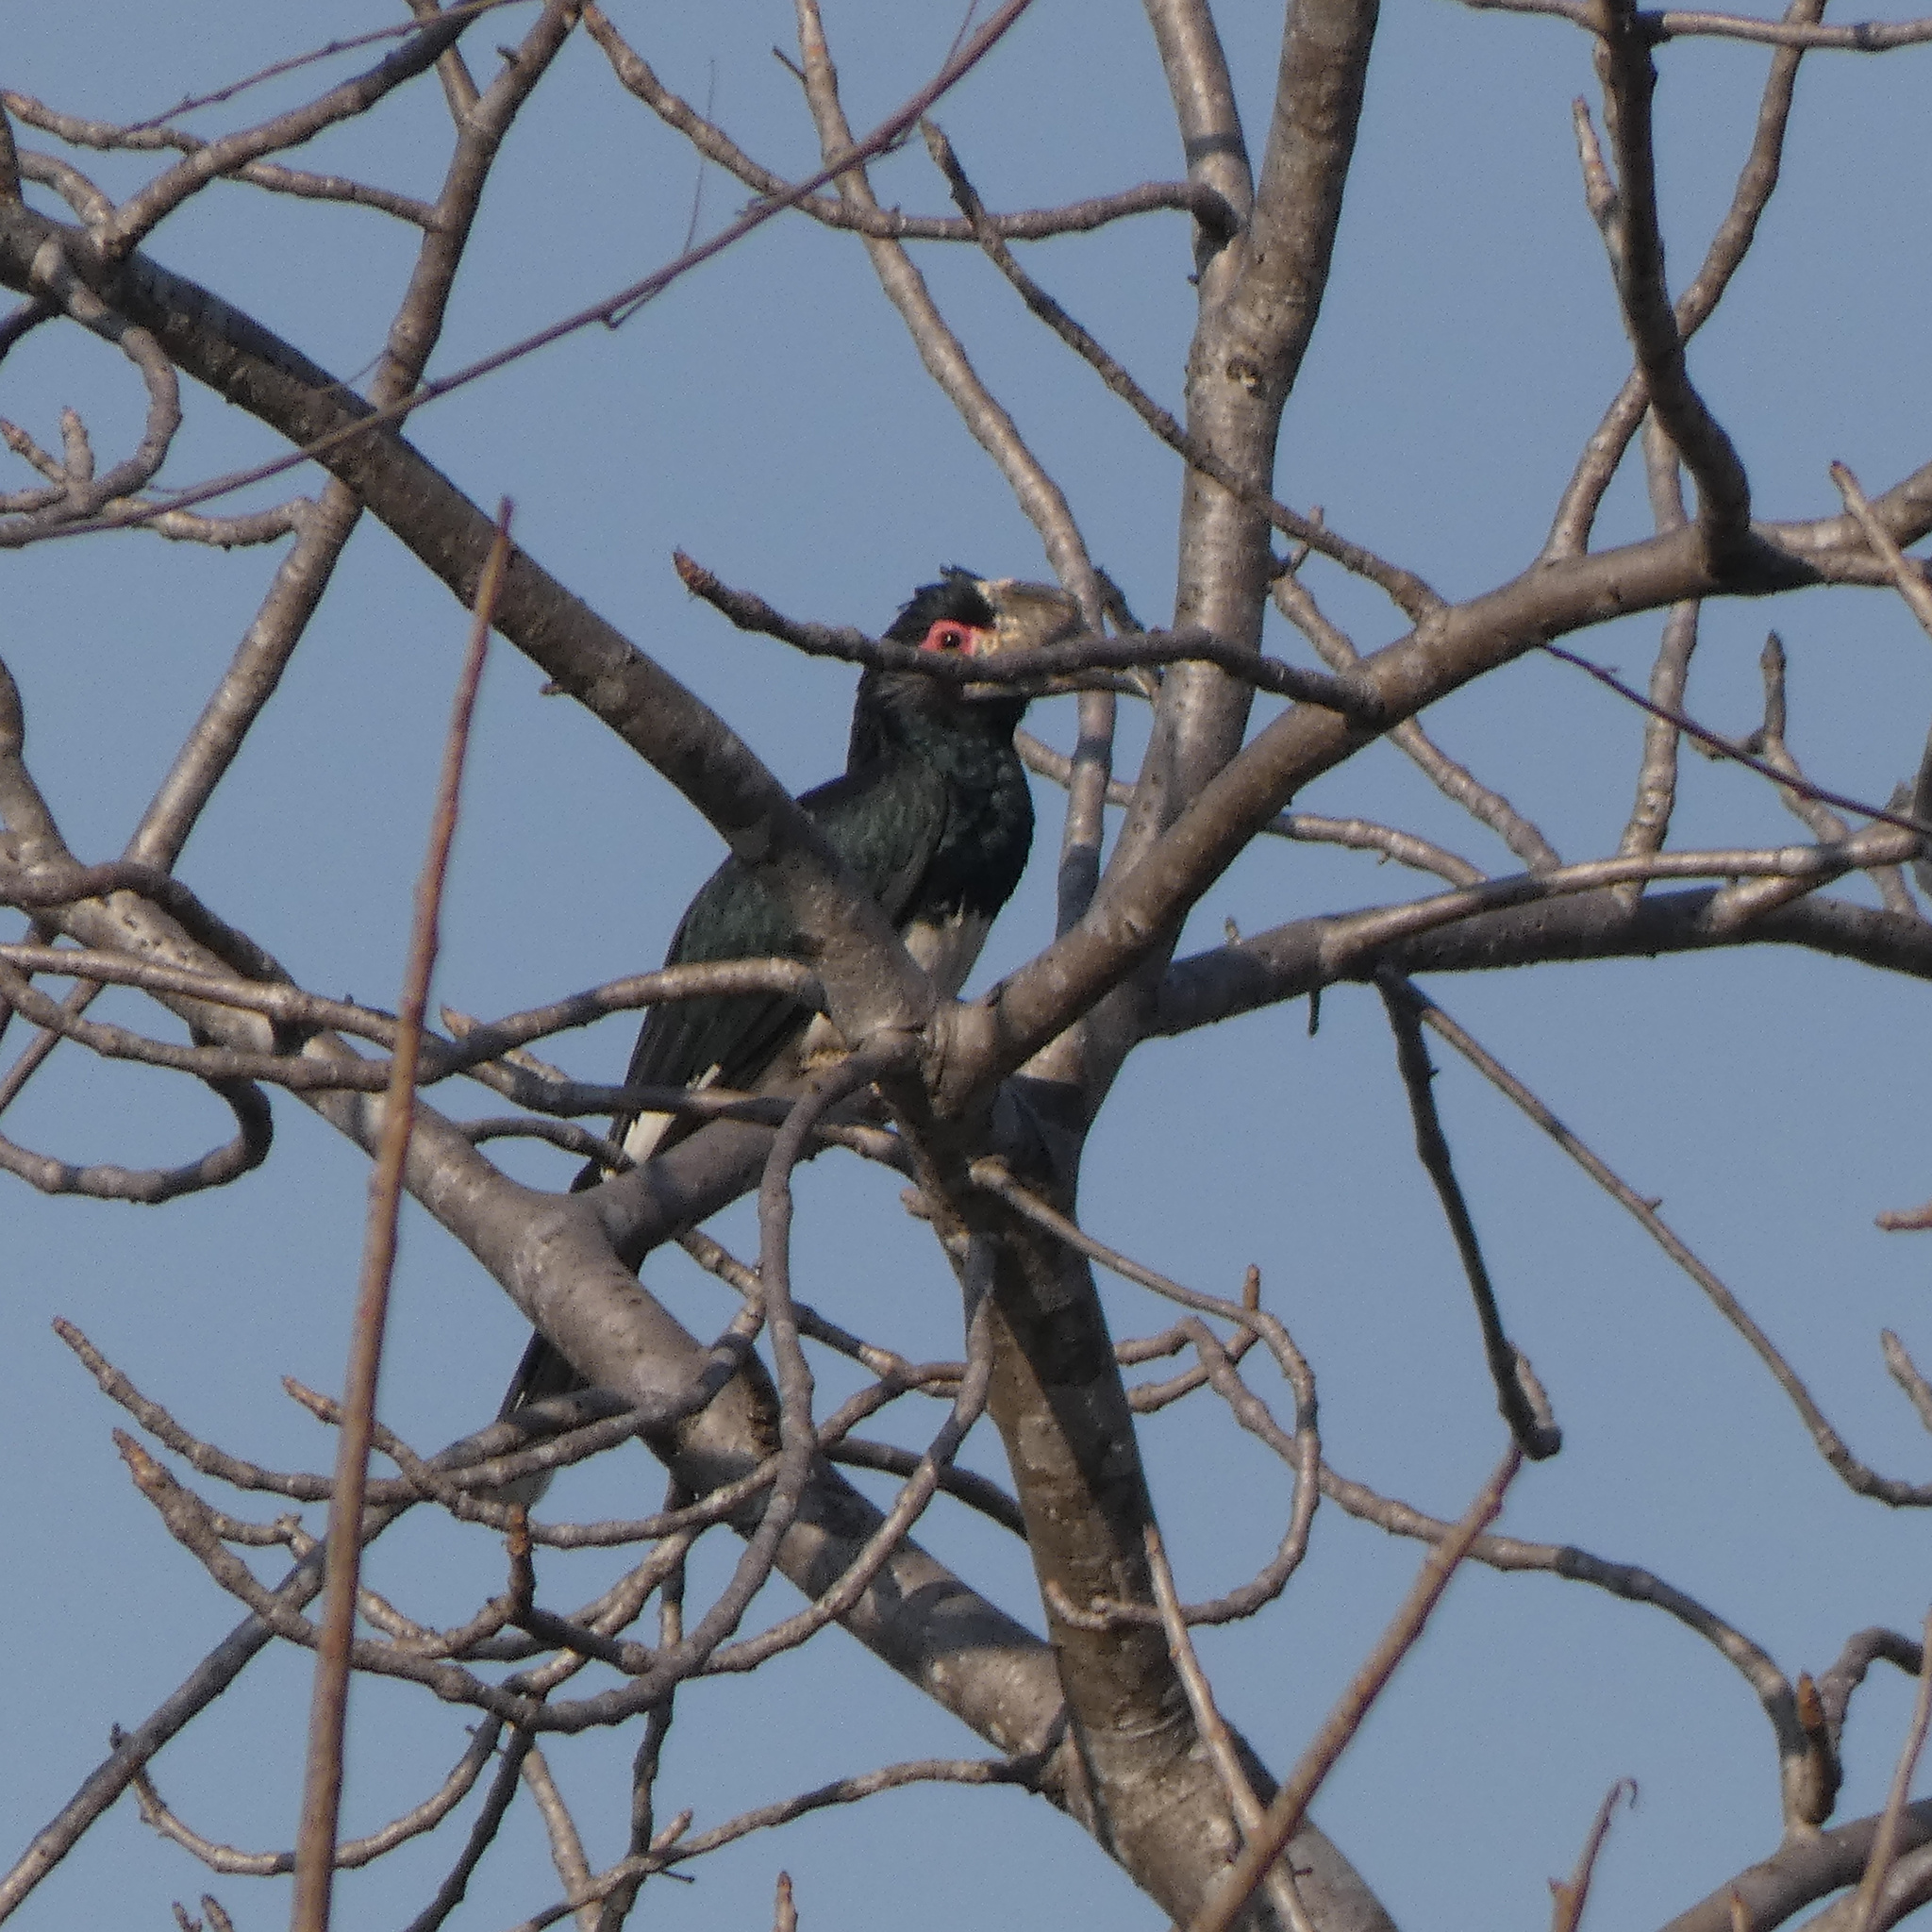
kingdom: Animalia
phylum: Chordata
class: Aves
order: Bucerotiformes
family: Bucerotidae
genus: Bycanistes
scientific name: Bycanistes bucinator
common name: Trumpeter hornbill
